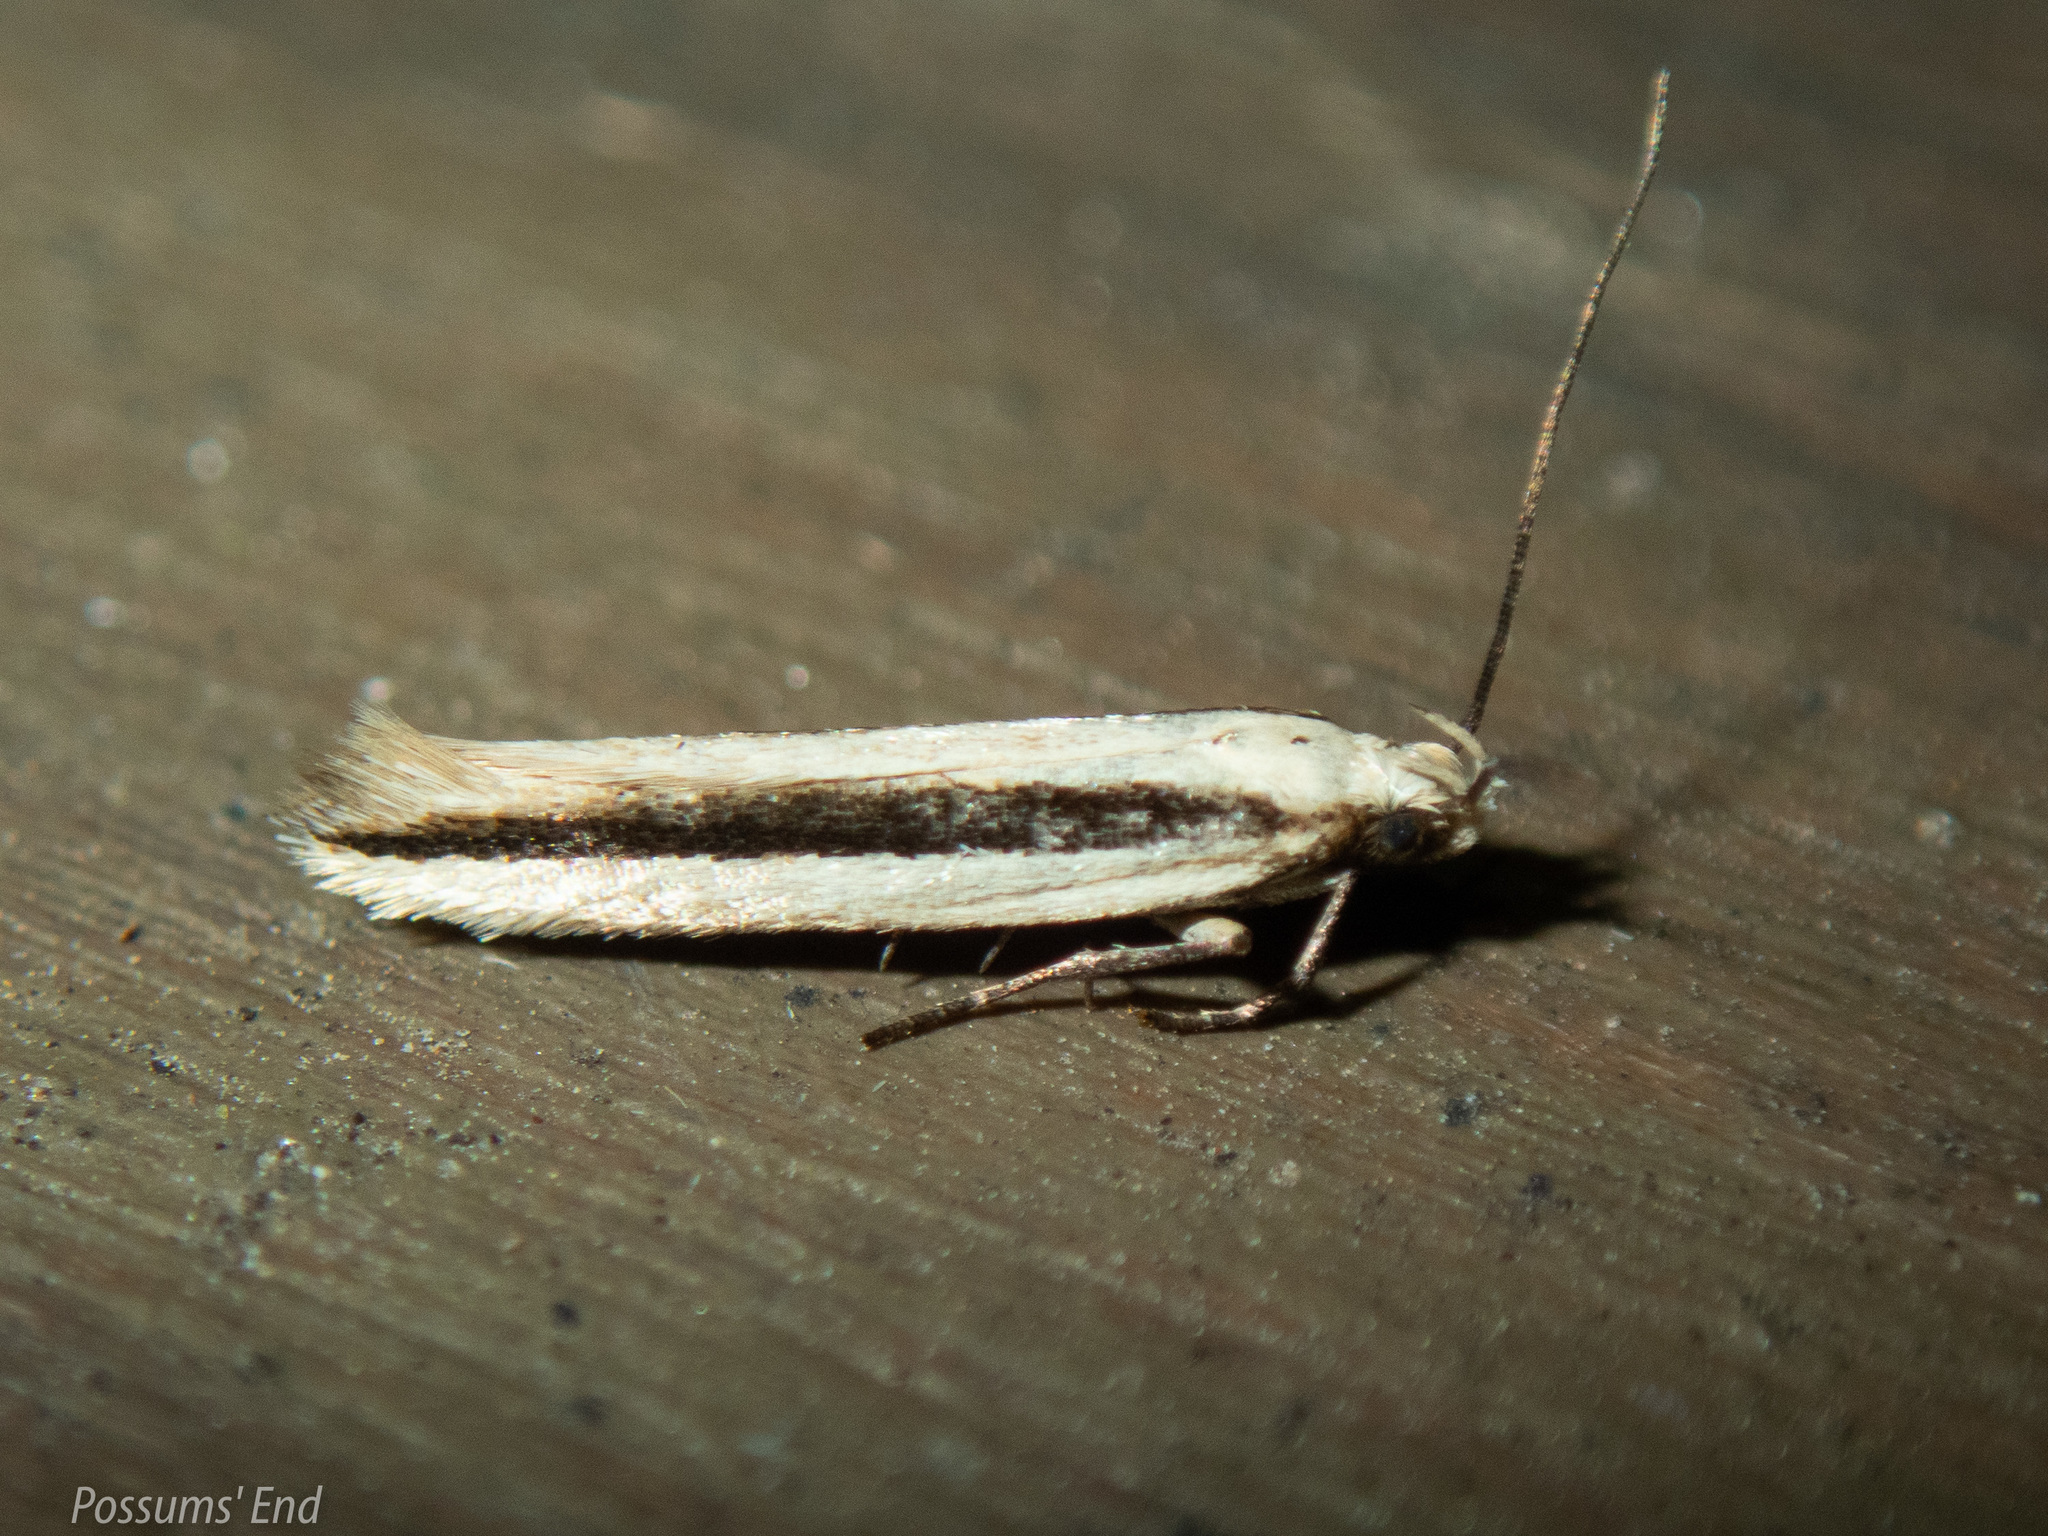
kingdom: Animalia
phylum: Arthropoda
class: Insecta
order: Lepidoptera
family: Gelechiidae
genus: Kiwaia
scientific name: Kiwaia monophragma
